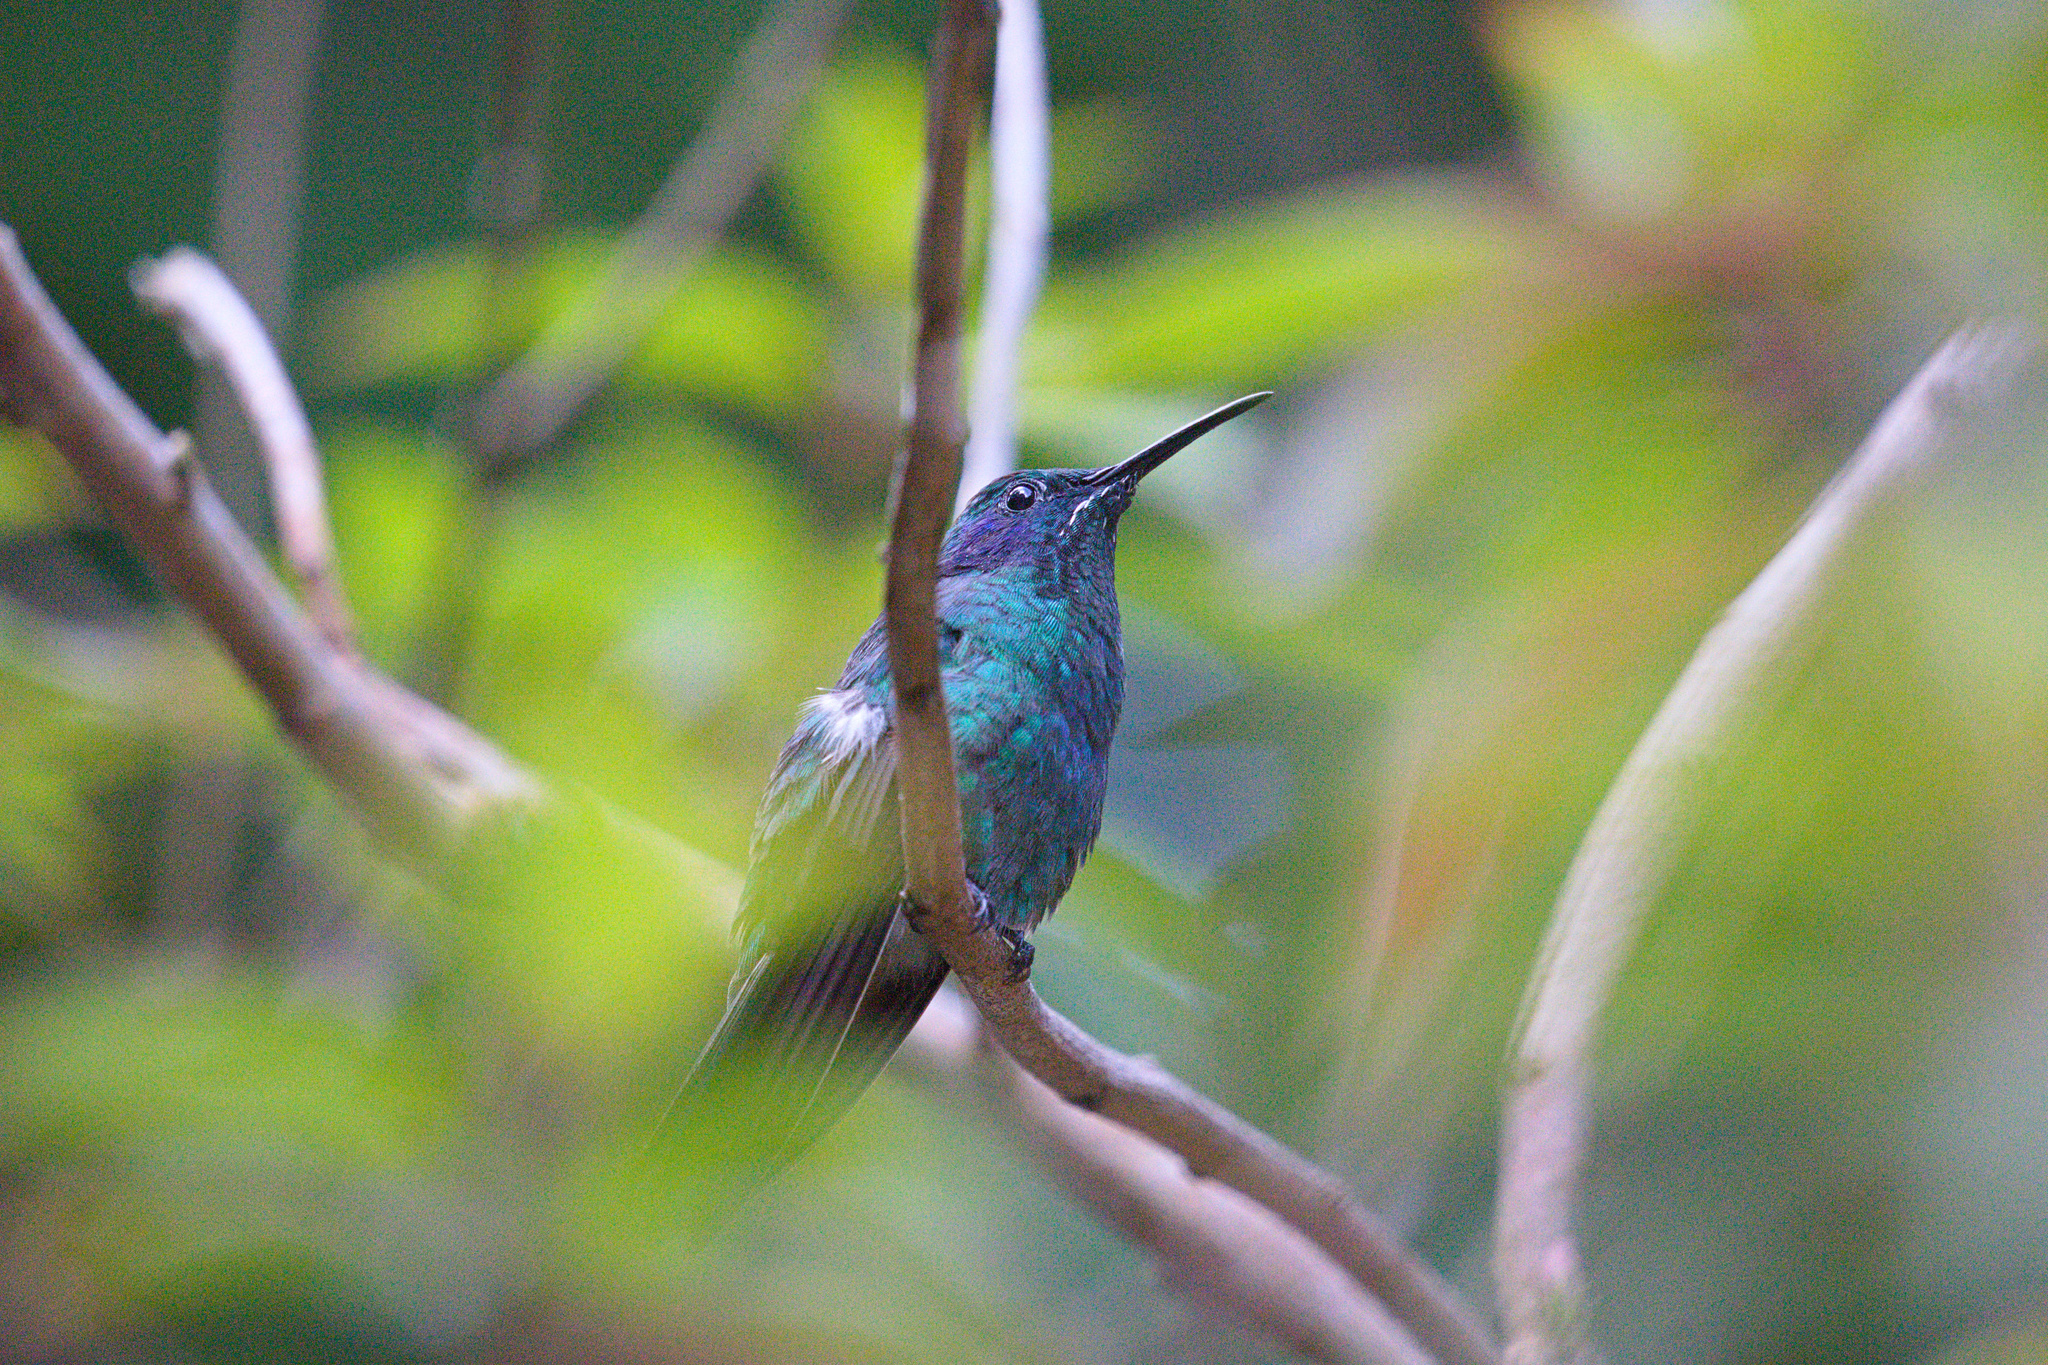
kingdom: Animalia
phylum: Chordata
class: Aves
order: Apodiformes
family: Trochilidae
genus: Colibri
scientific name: Colibri cyanotus
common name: Lesser violetear
